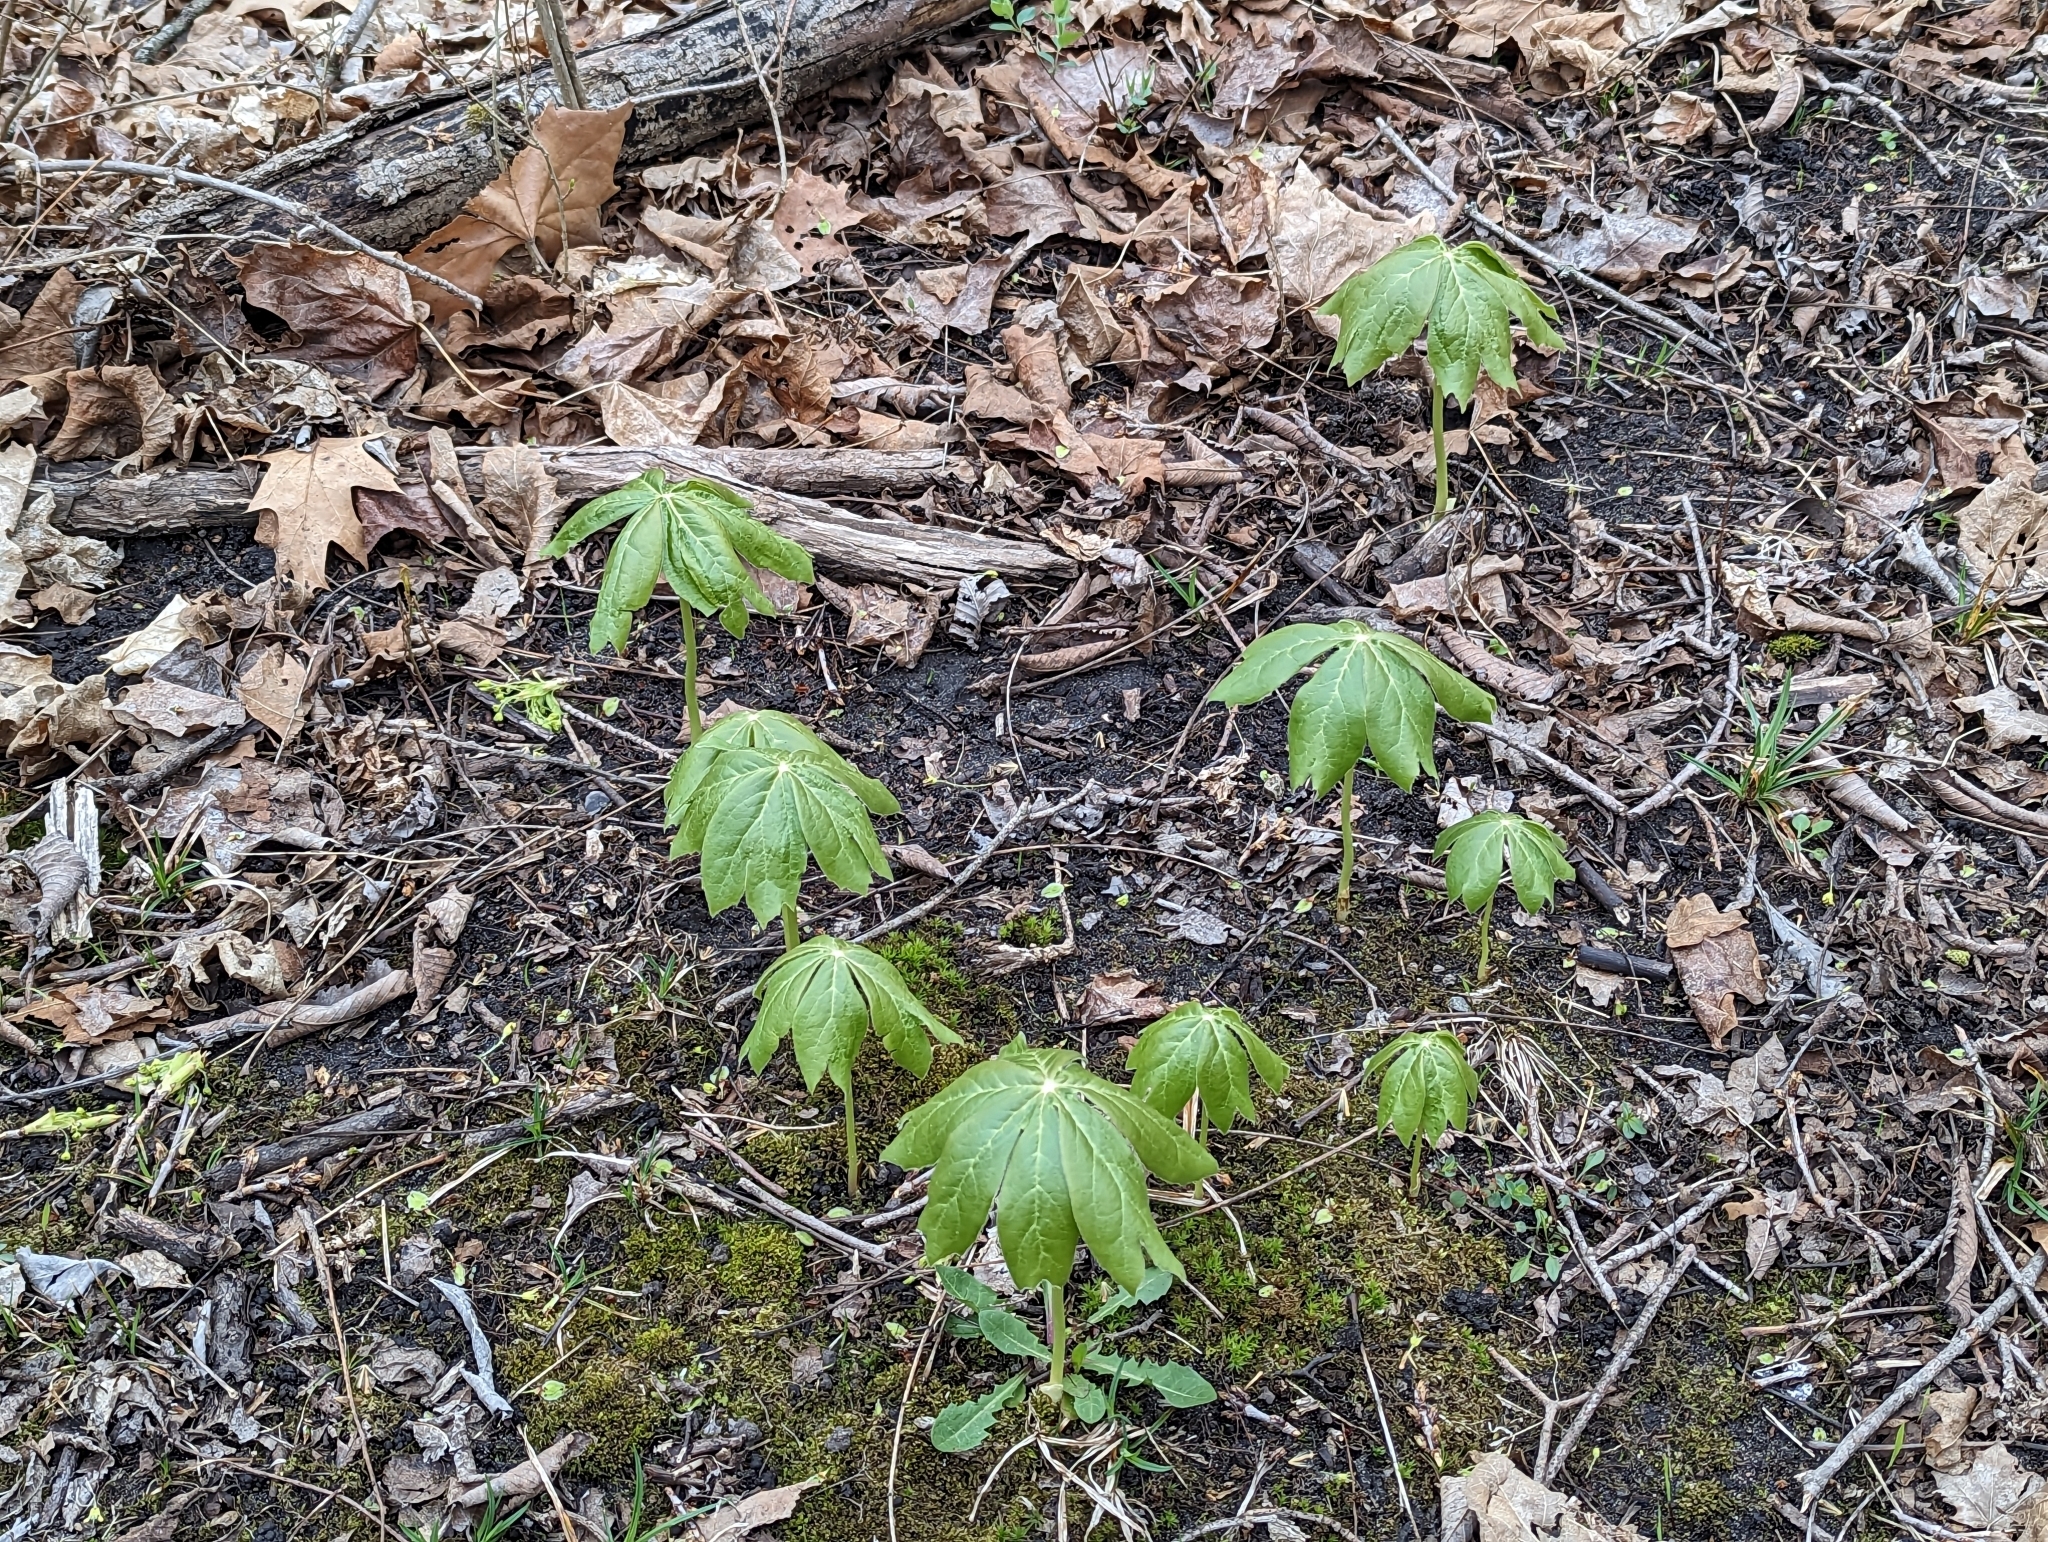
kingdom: Plantae
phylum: Tracheophyta
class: Magnoliopsida
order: Ranunculales
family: Berberidaceae
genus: Podophyllum
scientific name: Podophyllum peltatum
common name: Wild mandrake
